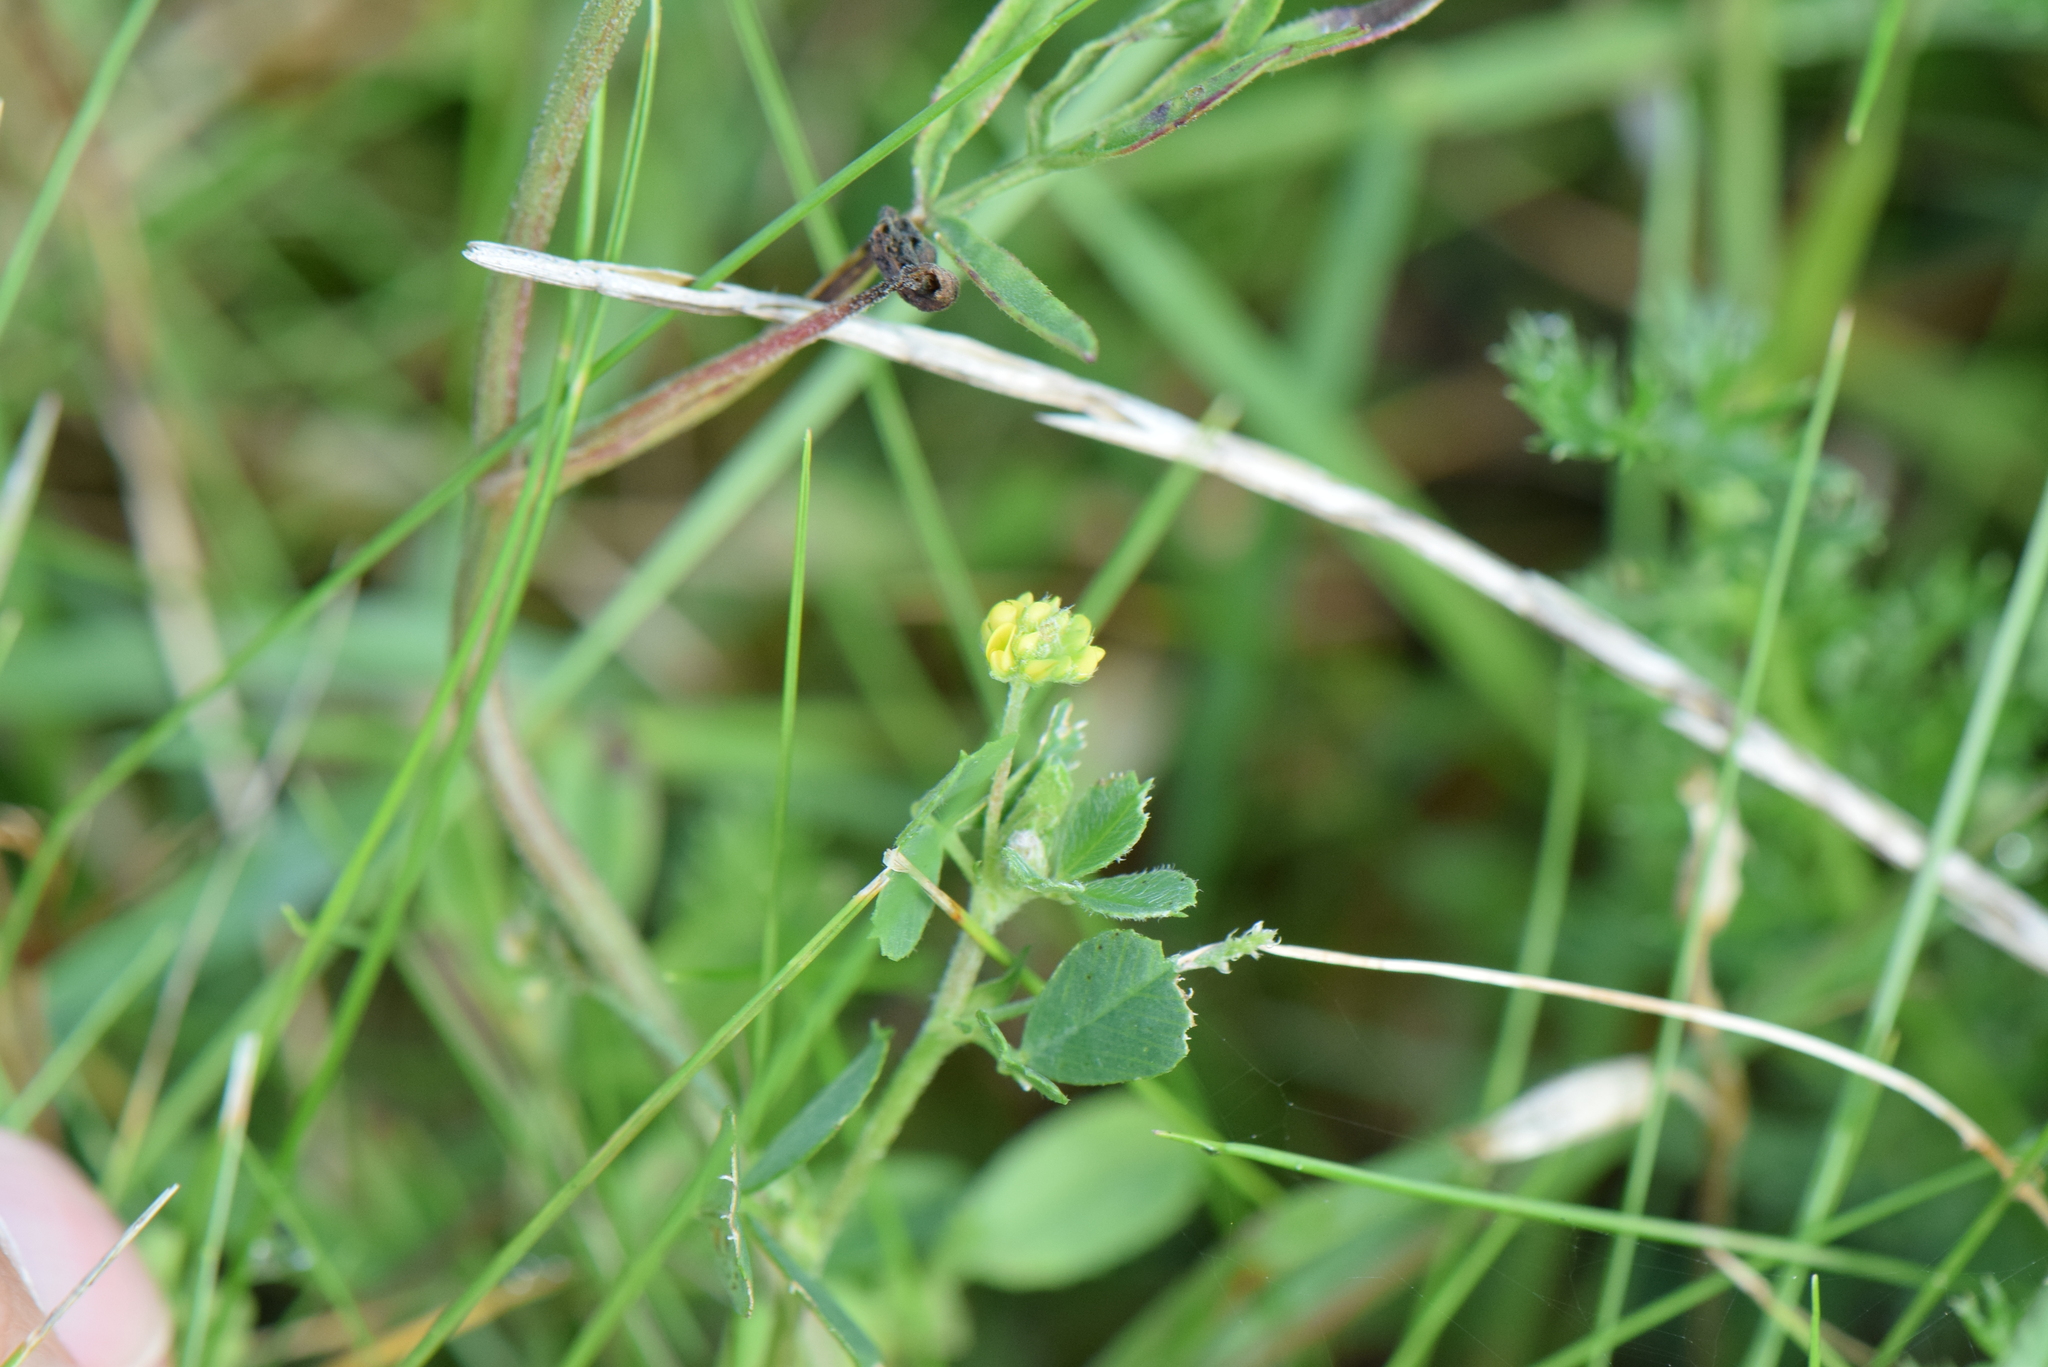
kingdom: Plantae
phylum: Tracheophyta
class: Magnoliopsida
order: Fabales
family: Fabaceae
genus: Medicago
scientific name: Medicago lupulina
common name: Black medick
